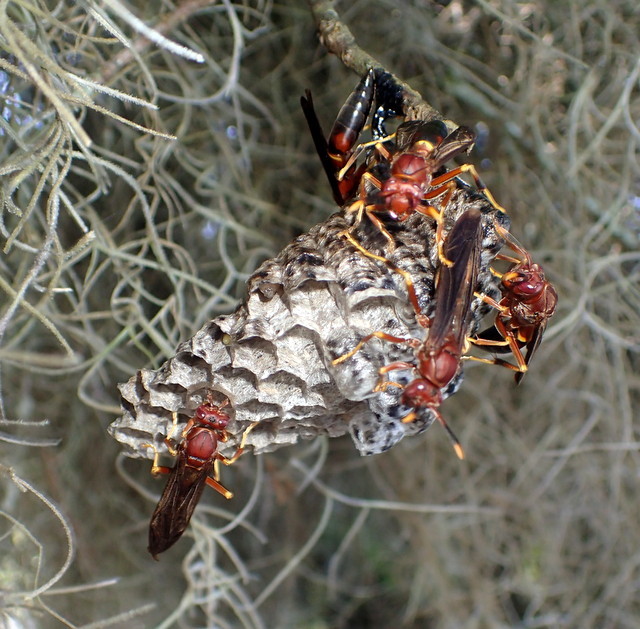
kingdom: Animalia
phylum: Arthropoda
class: Insecta
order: Hymenoptera
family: Eumenidae
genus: Polistes
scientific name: Polistes annularis
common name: Ringed paper wasp
